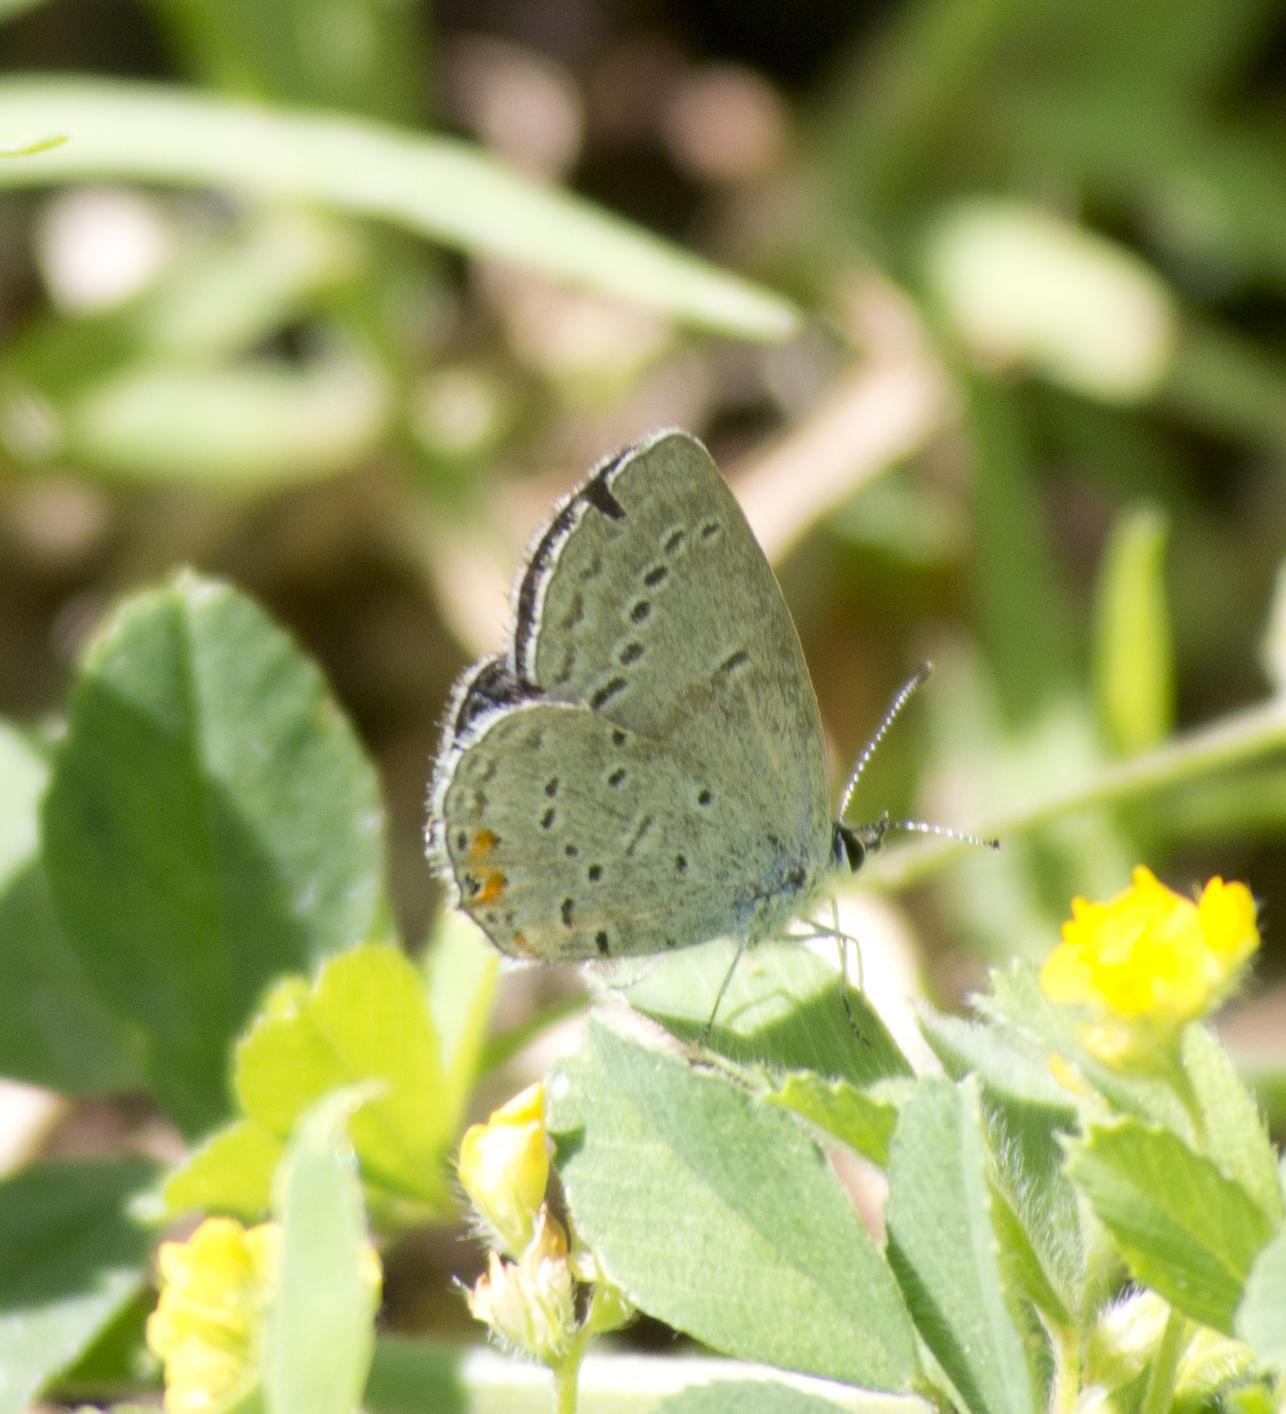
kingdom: Animalia
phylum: Arthropoda
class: Insecta
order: Lepidoptera
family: Lycaenidae
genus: Elkalyce
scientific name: Elkalyce comyntas
